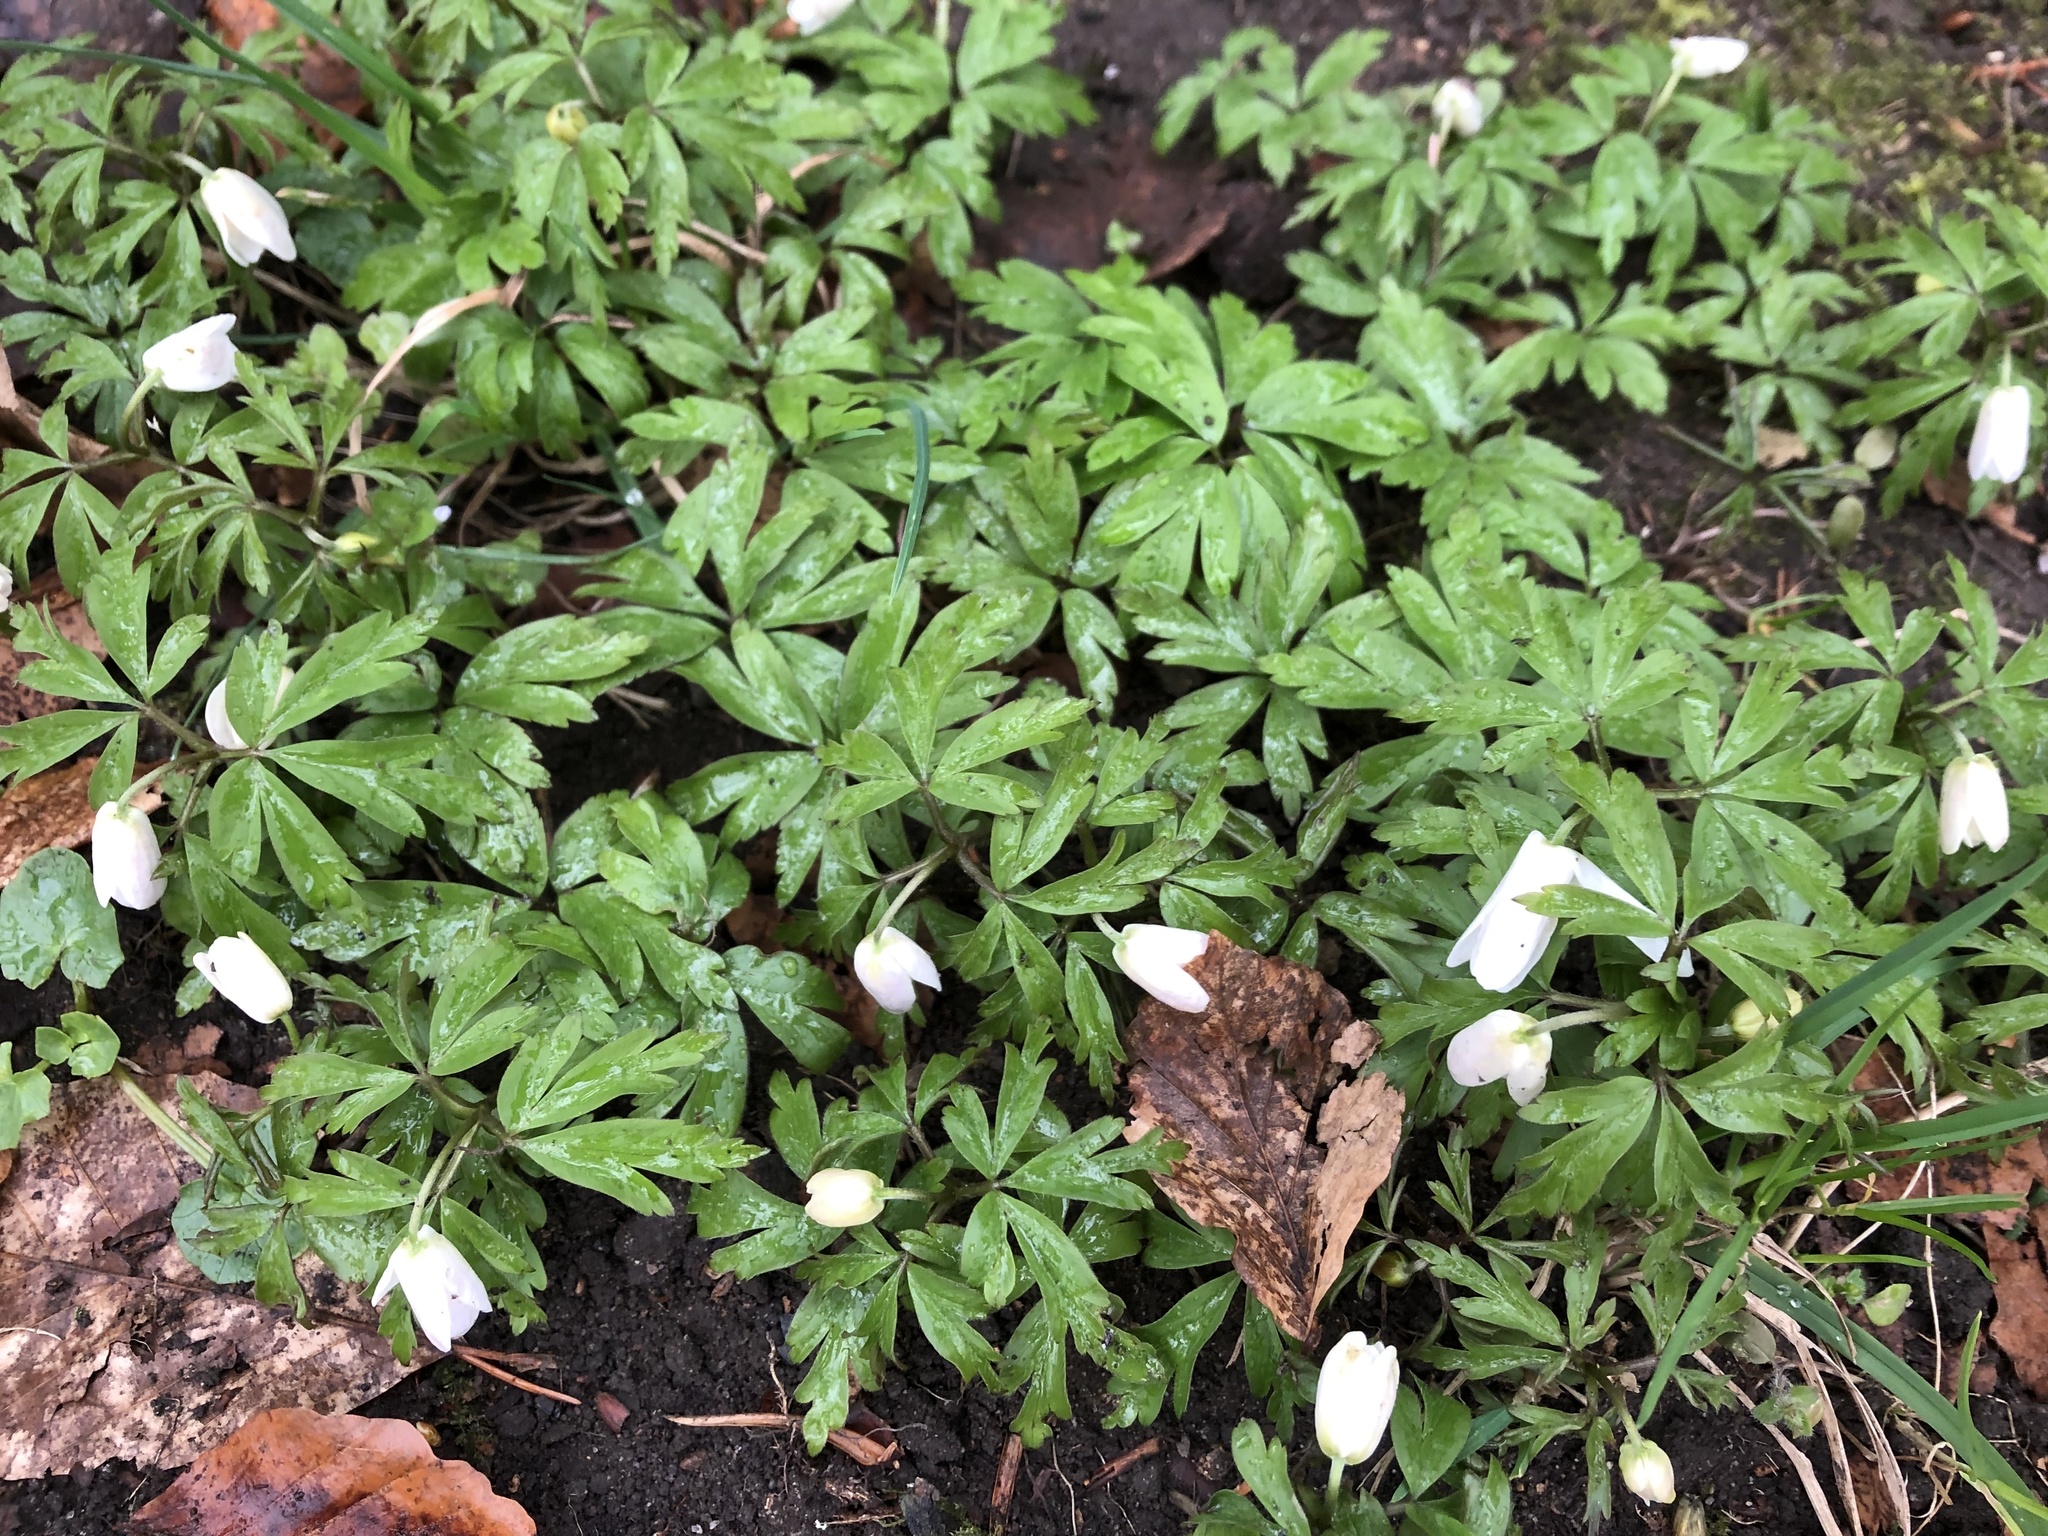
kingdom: Plantae
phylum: Tracheophyta
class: Magnoliopsida
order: Ranunculales
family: Ranunculaceae
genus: Anemone
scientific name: Anemone nemorosa
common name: Wood anemone
